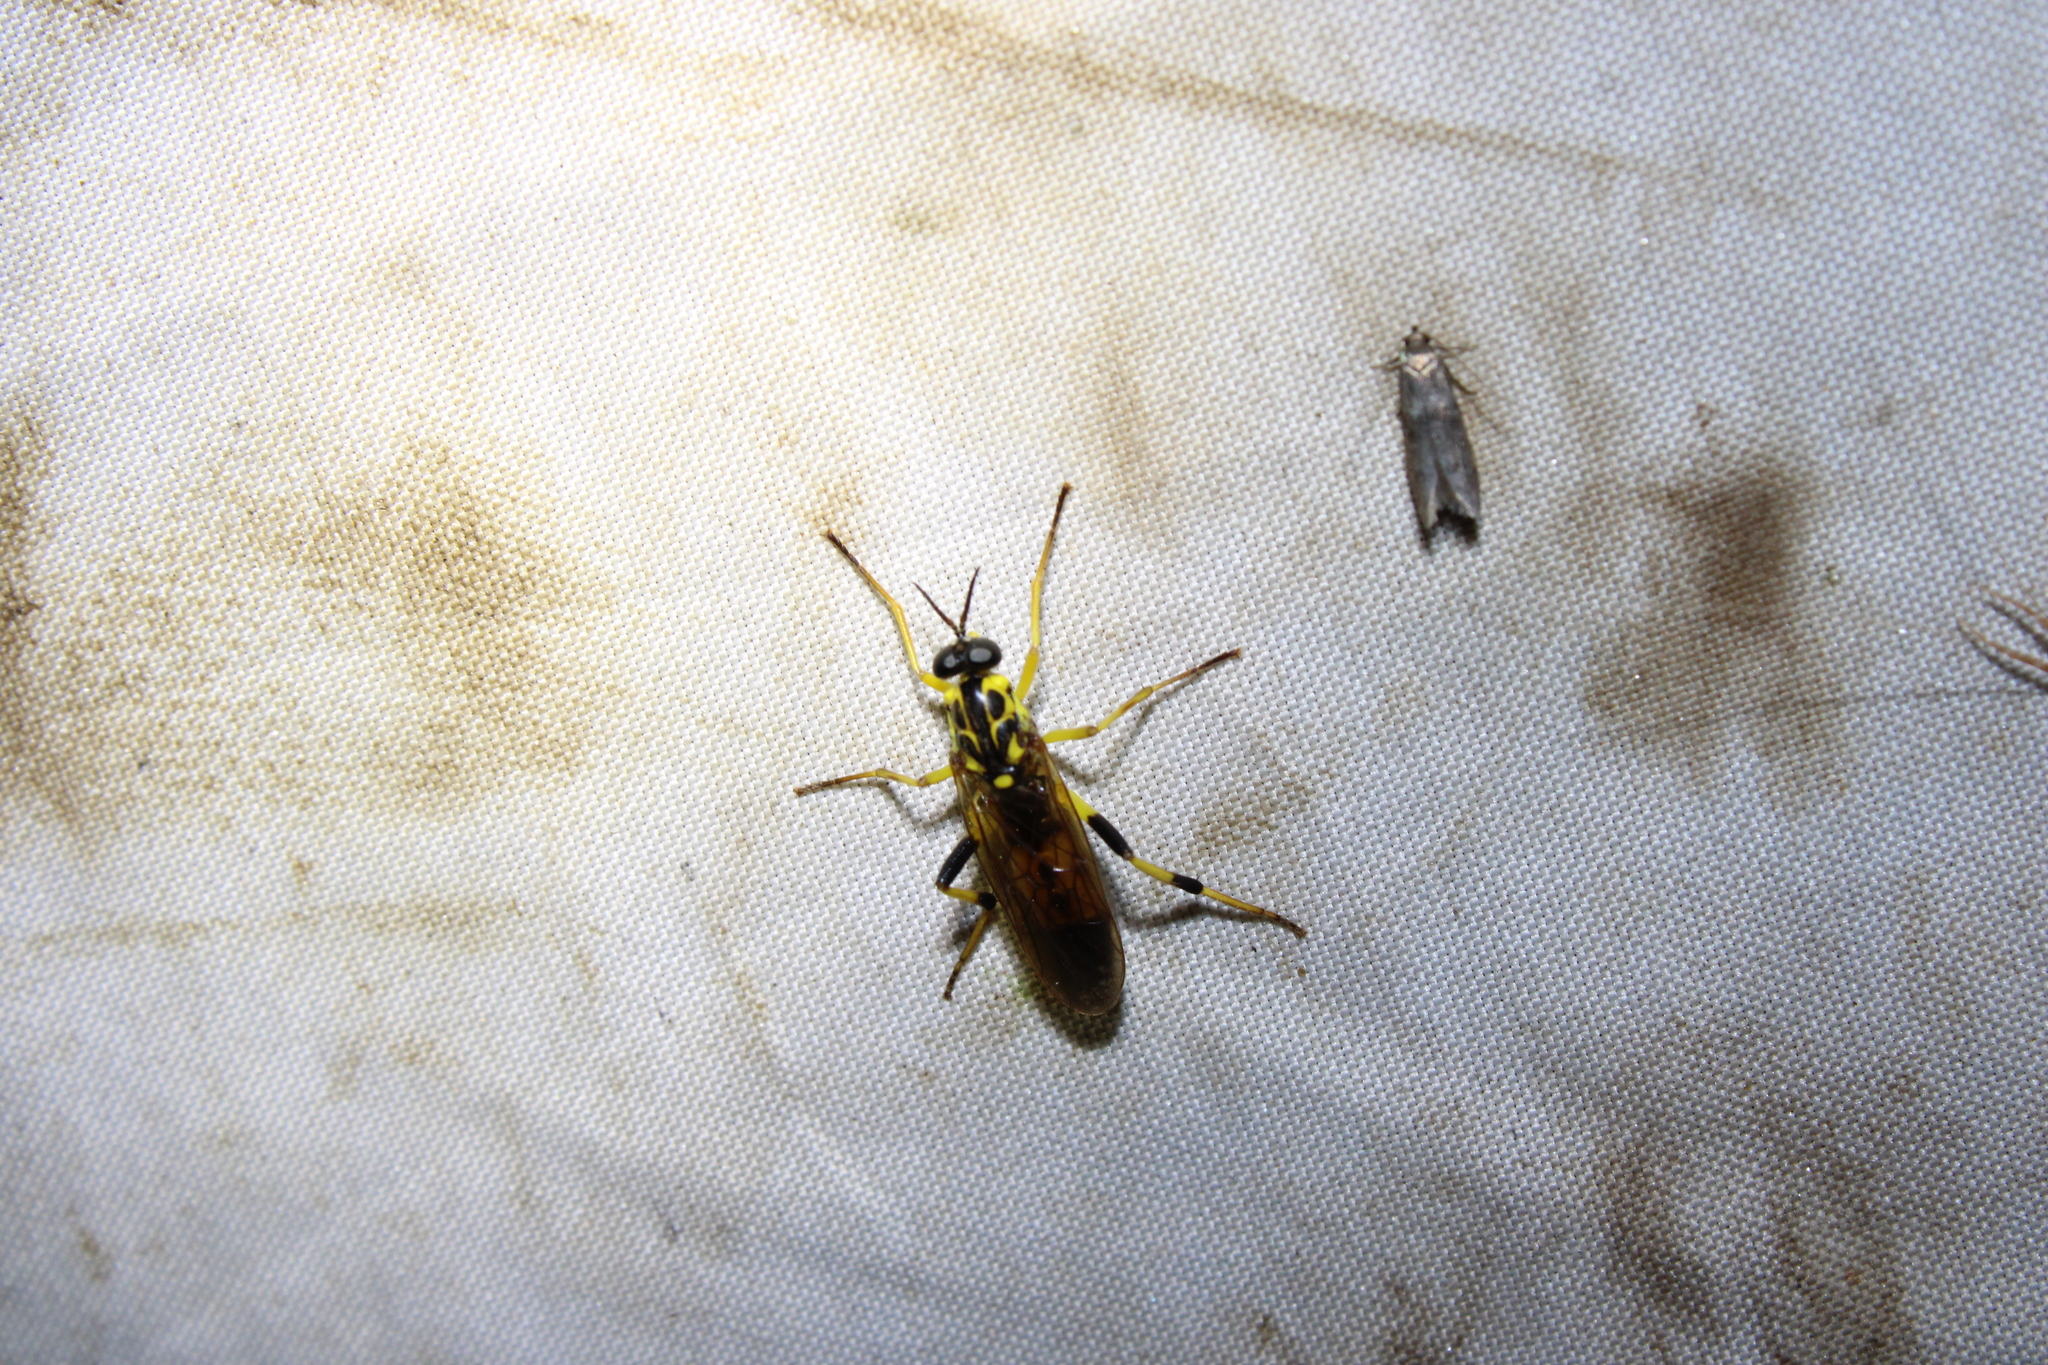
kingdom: Animalia
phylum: Arthropoda
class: Insecta
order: Diptera
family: Xylomyidae
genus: Xylomya
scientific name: Xylomya terminalis
